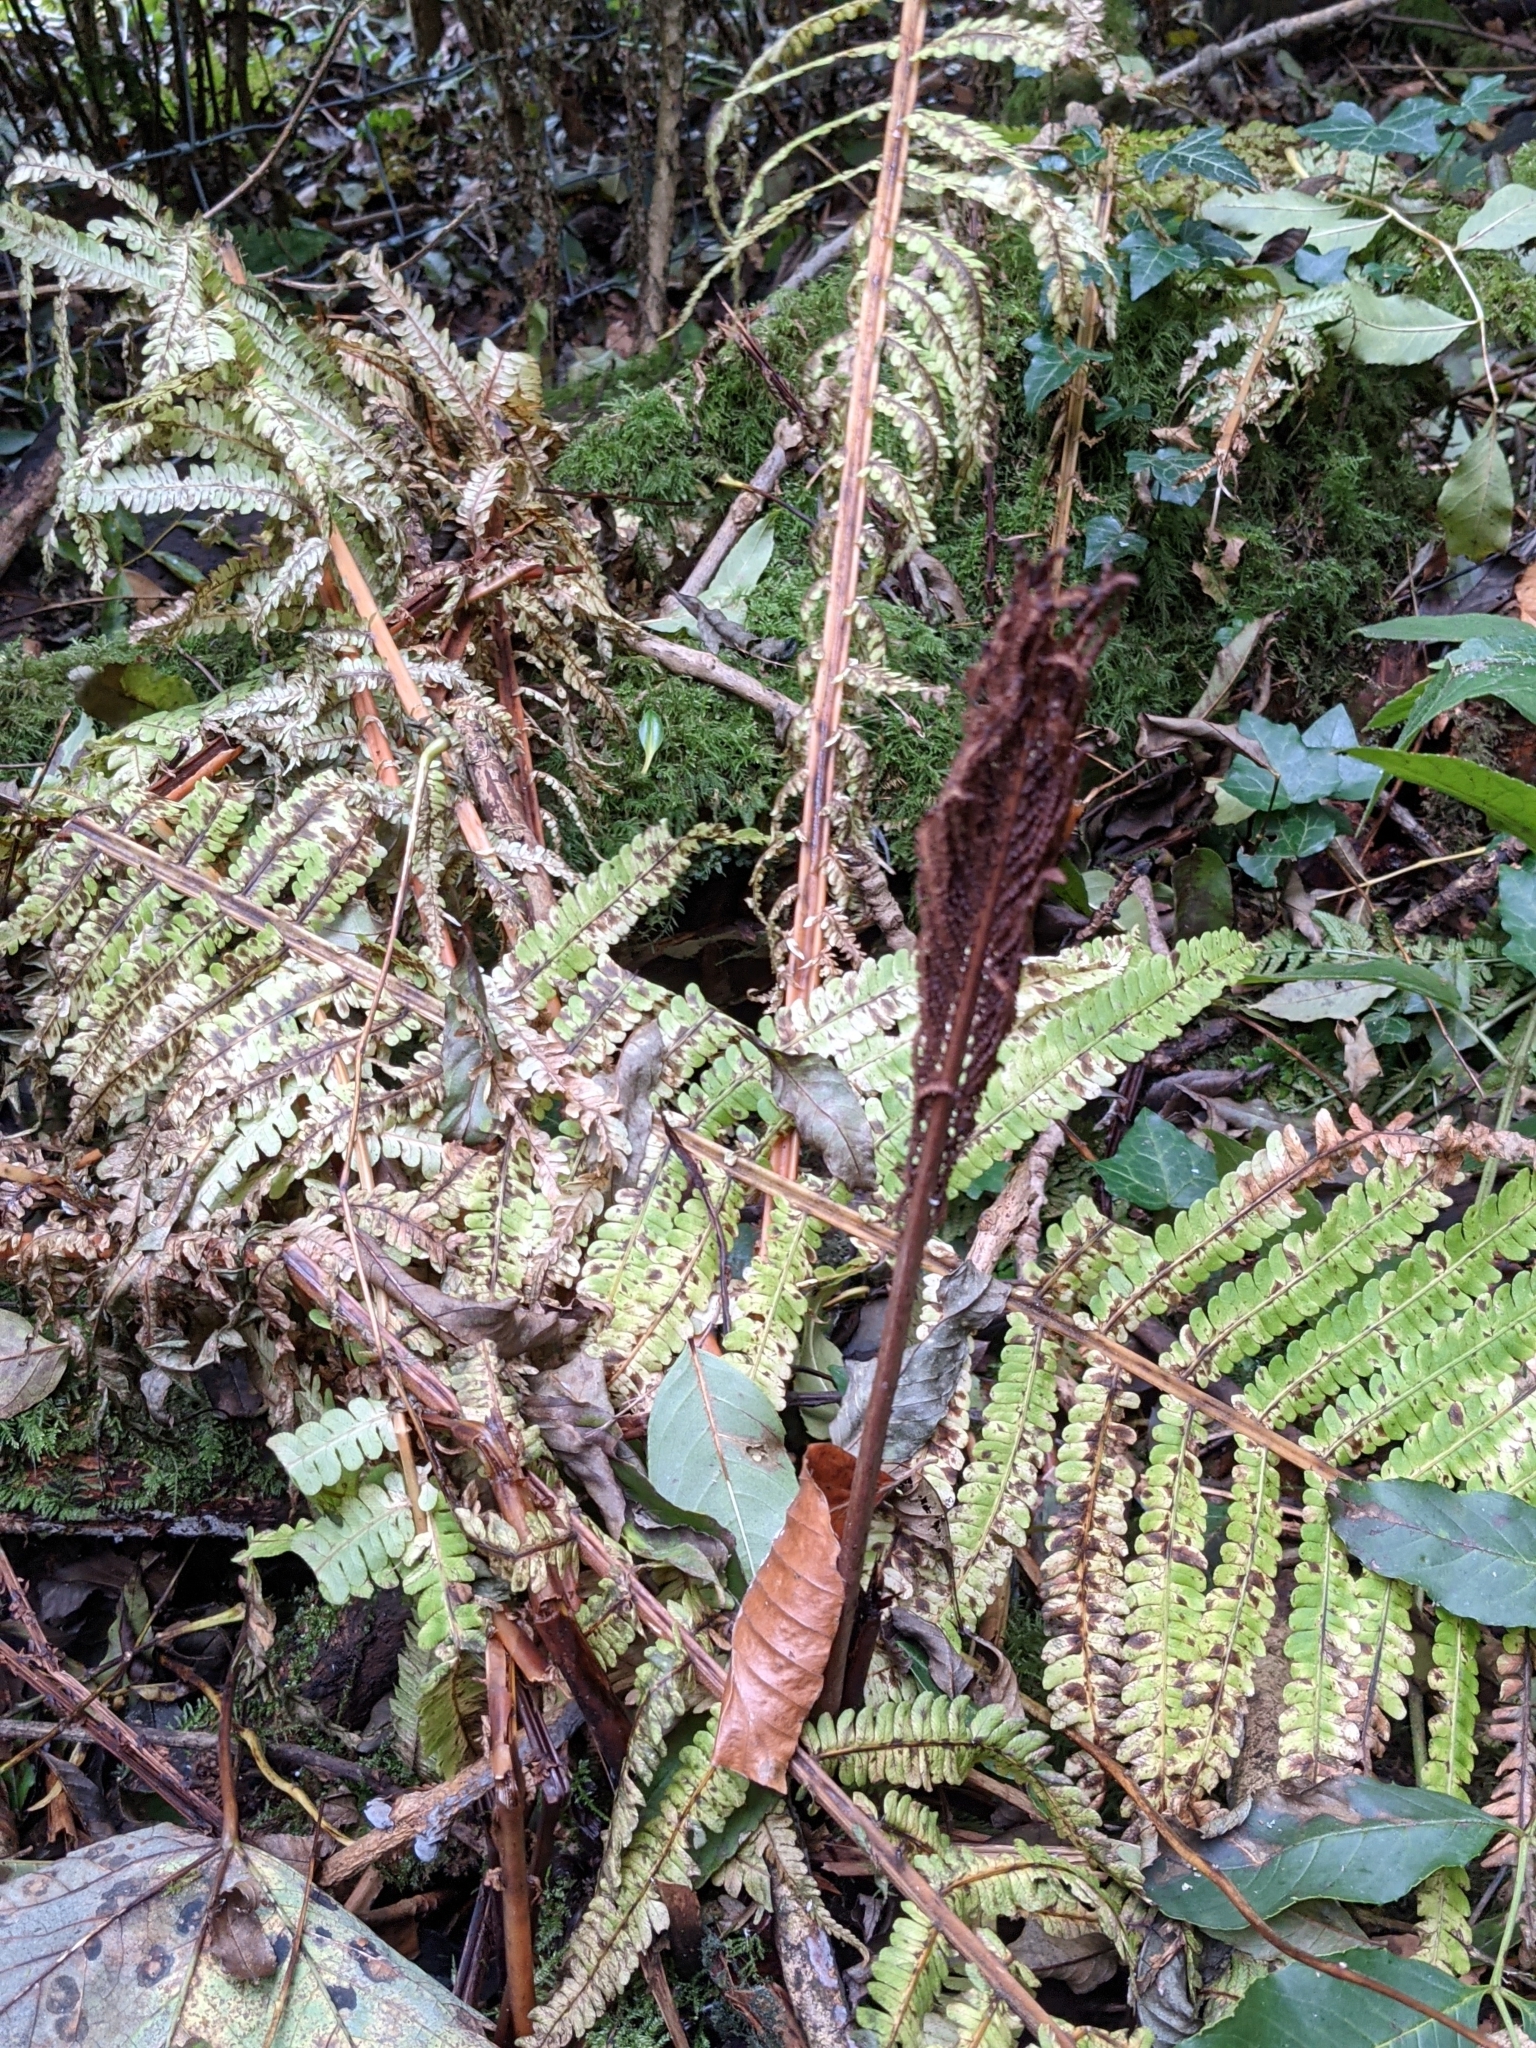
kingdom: Plantae
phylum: Tracheophyta
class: Polypodiopsida
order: Polypodiales
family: Onocleaceae
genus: Matteuccia
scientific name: Matteuccia struthiopteris
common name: Ostrich fern
